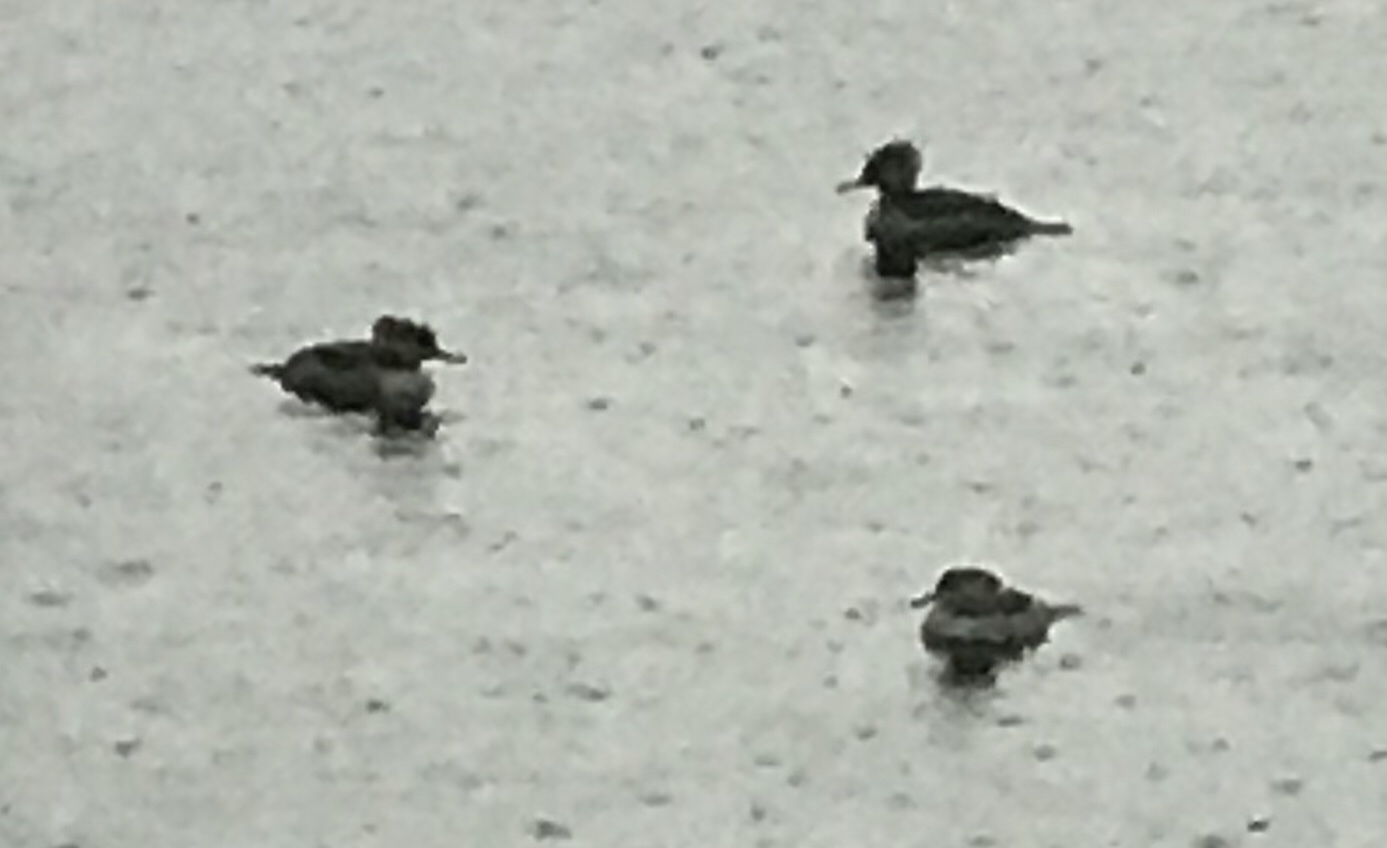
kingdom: Animalia
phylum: Chordata
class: Aves
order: Anseriformes
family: Anatidae
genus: Lophodytes
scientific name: Lophodytes cucullatus
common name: Hooded merganser
